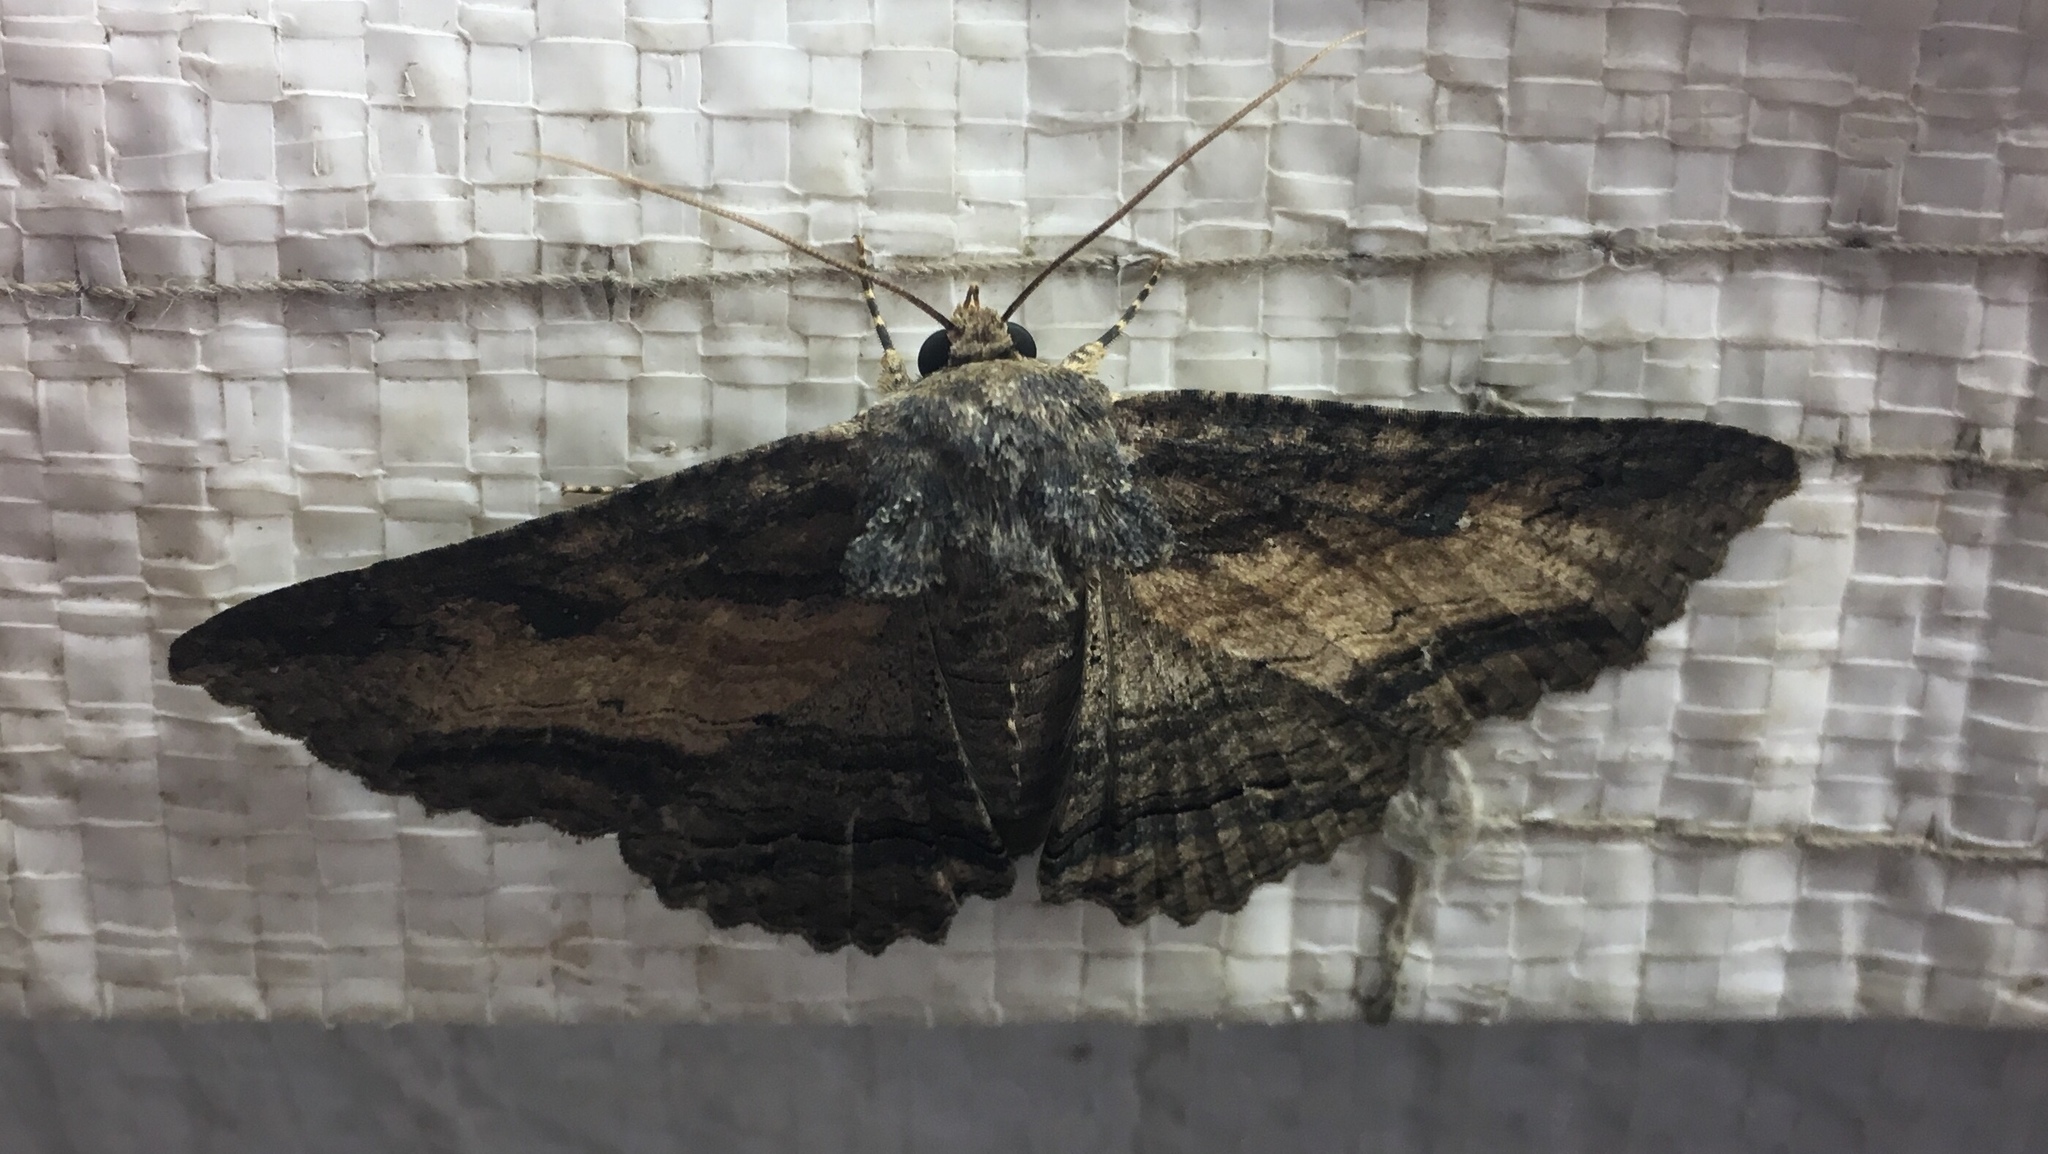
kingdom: Animalia
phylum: Arthropoda
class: Insecta
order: Lepidoptera
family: Erebidae
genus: Zale
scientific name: Zale lunata
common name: Lunate zale moth
